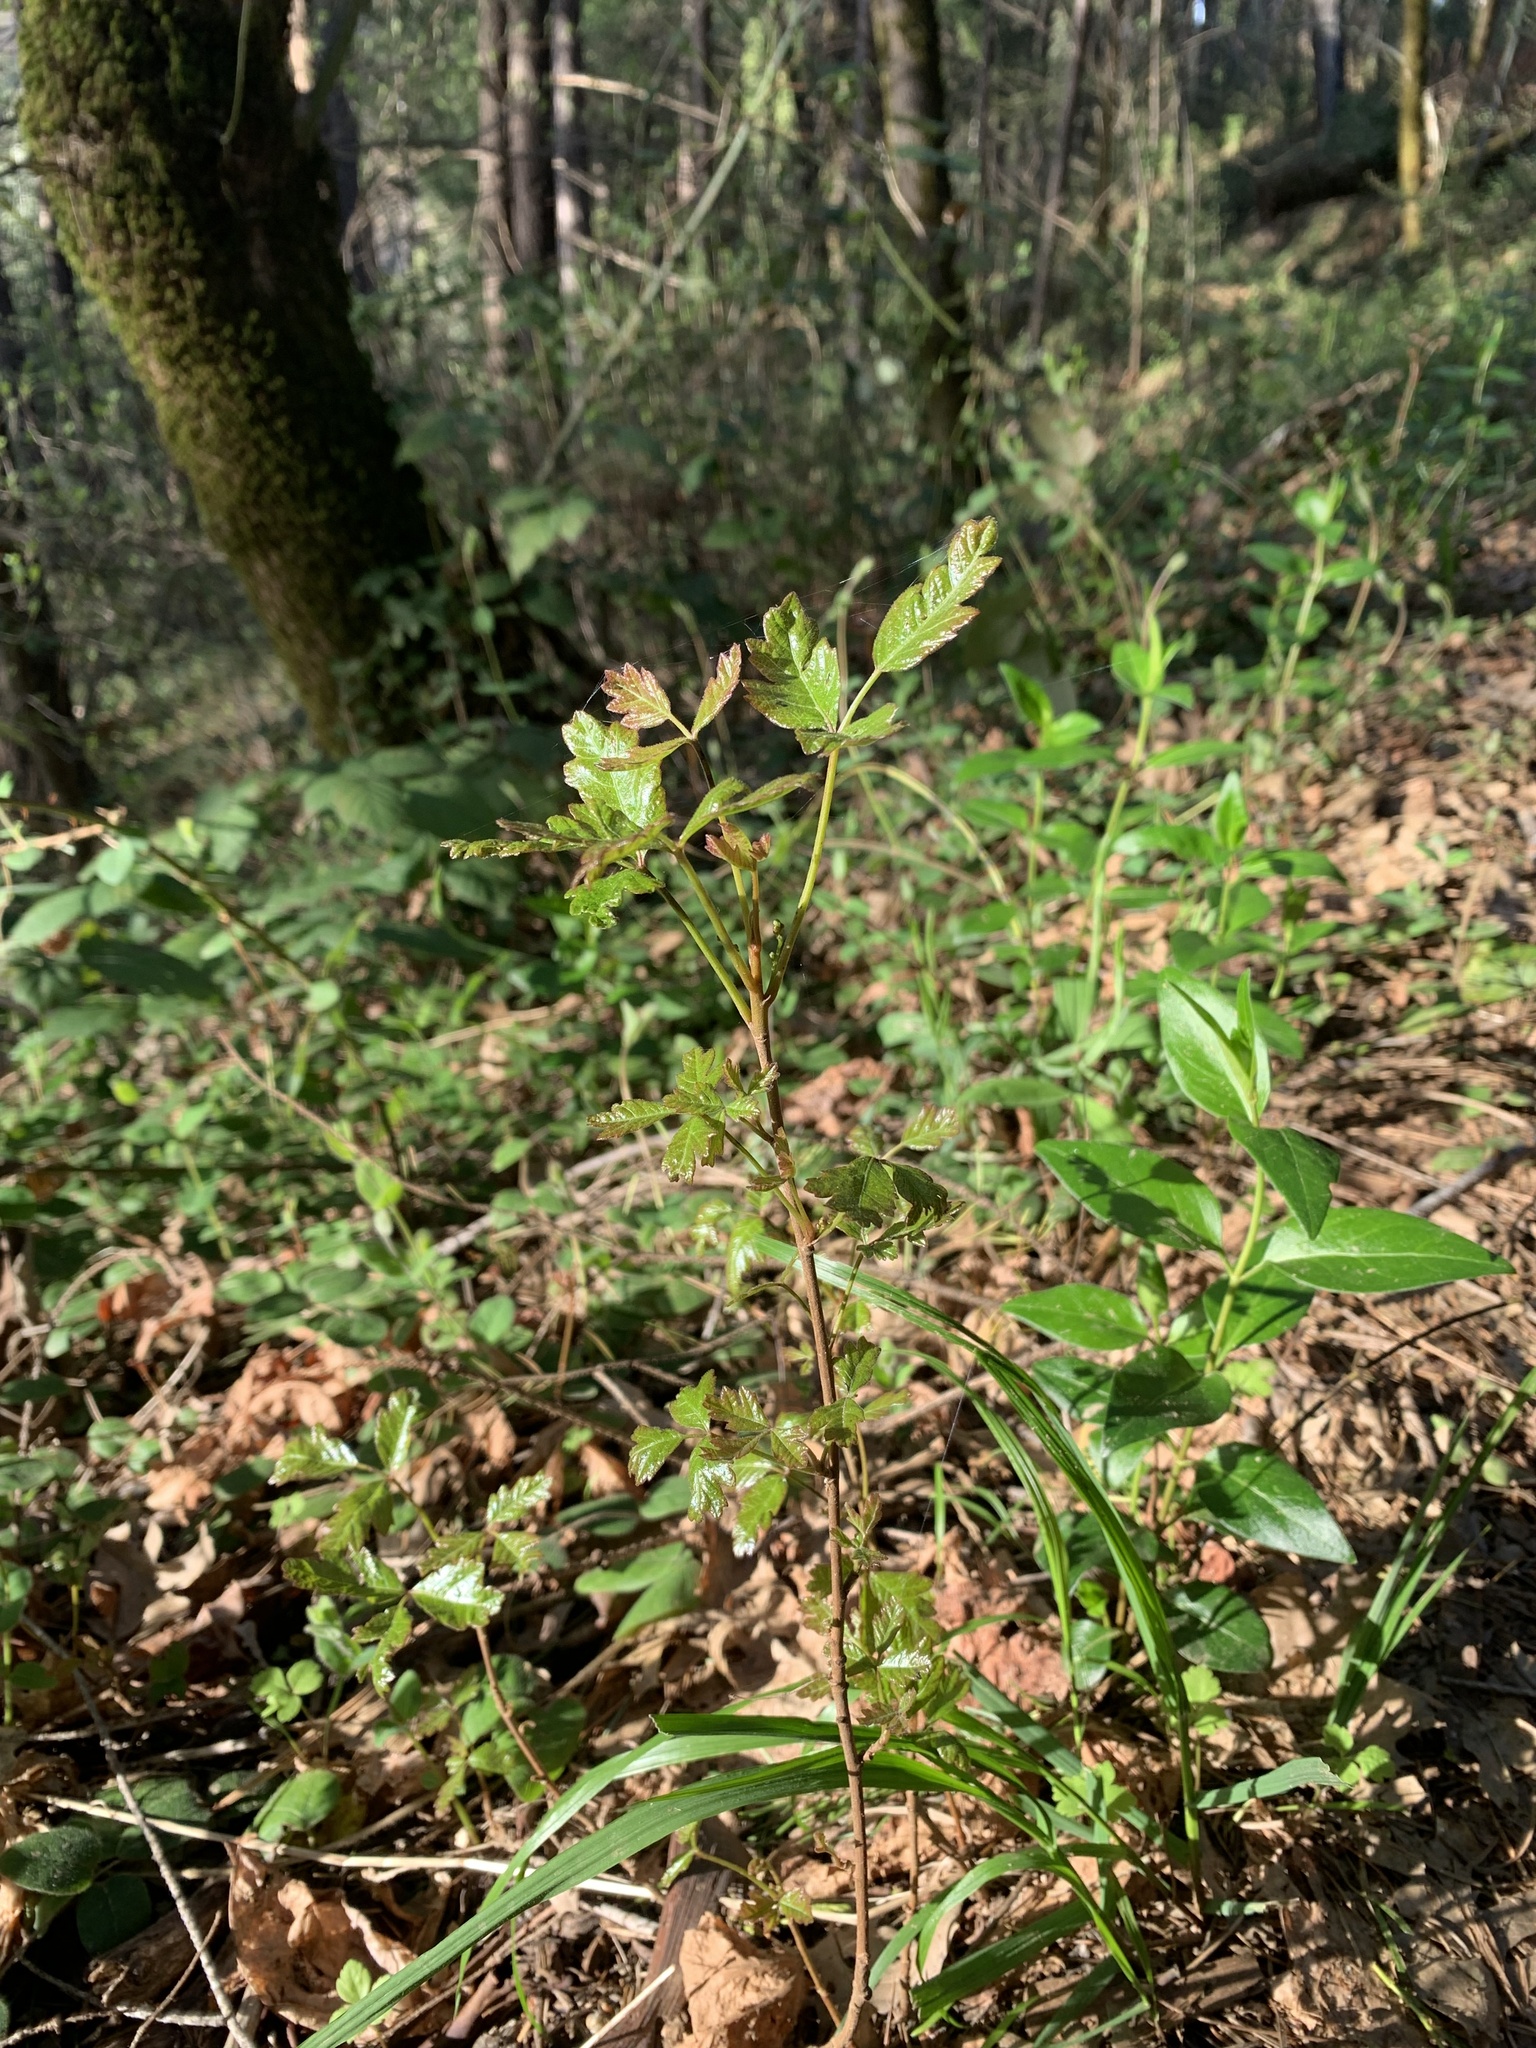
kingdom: Plantae
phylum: Tracheophyta
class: Magnoliopsida
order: Sapindales
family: Anacardiaceae
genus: Toxicodendron
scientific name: Toxicodendron diversilobum
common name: Pacific poison-oak
